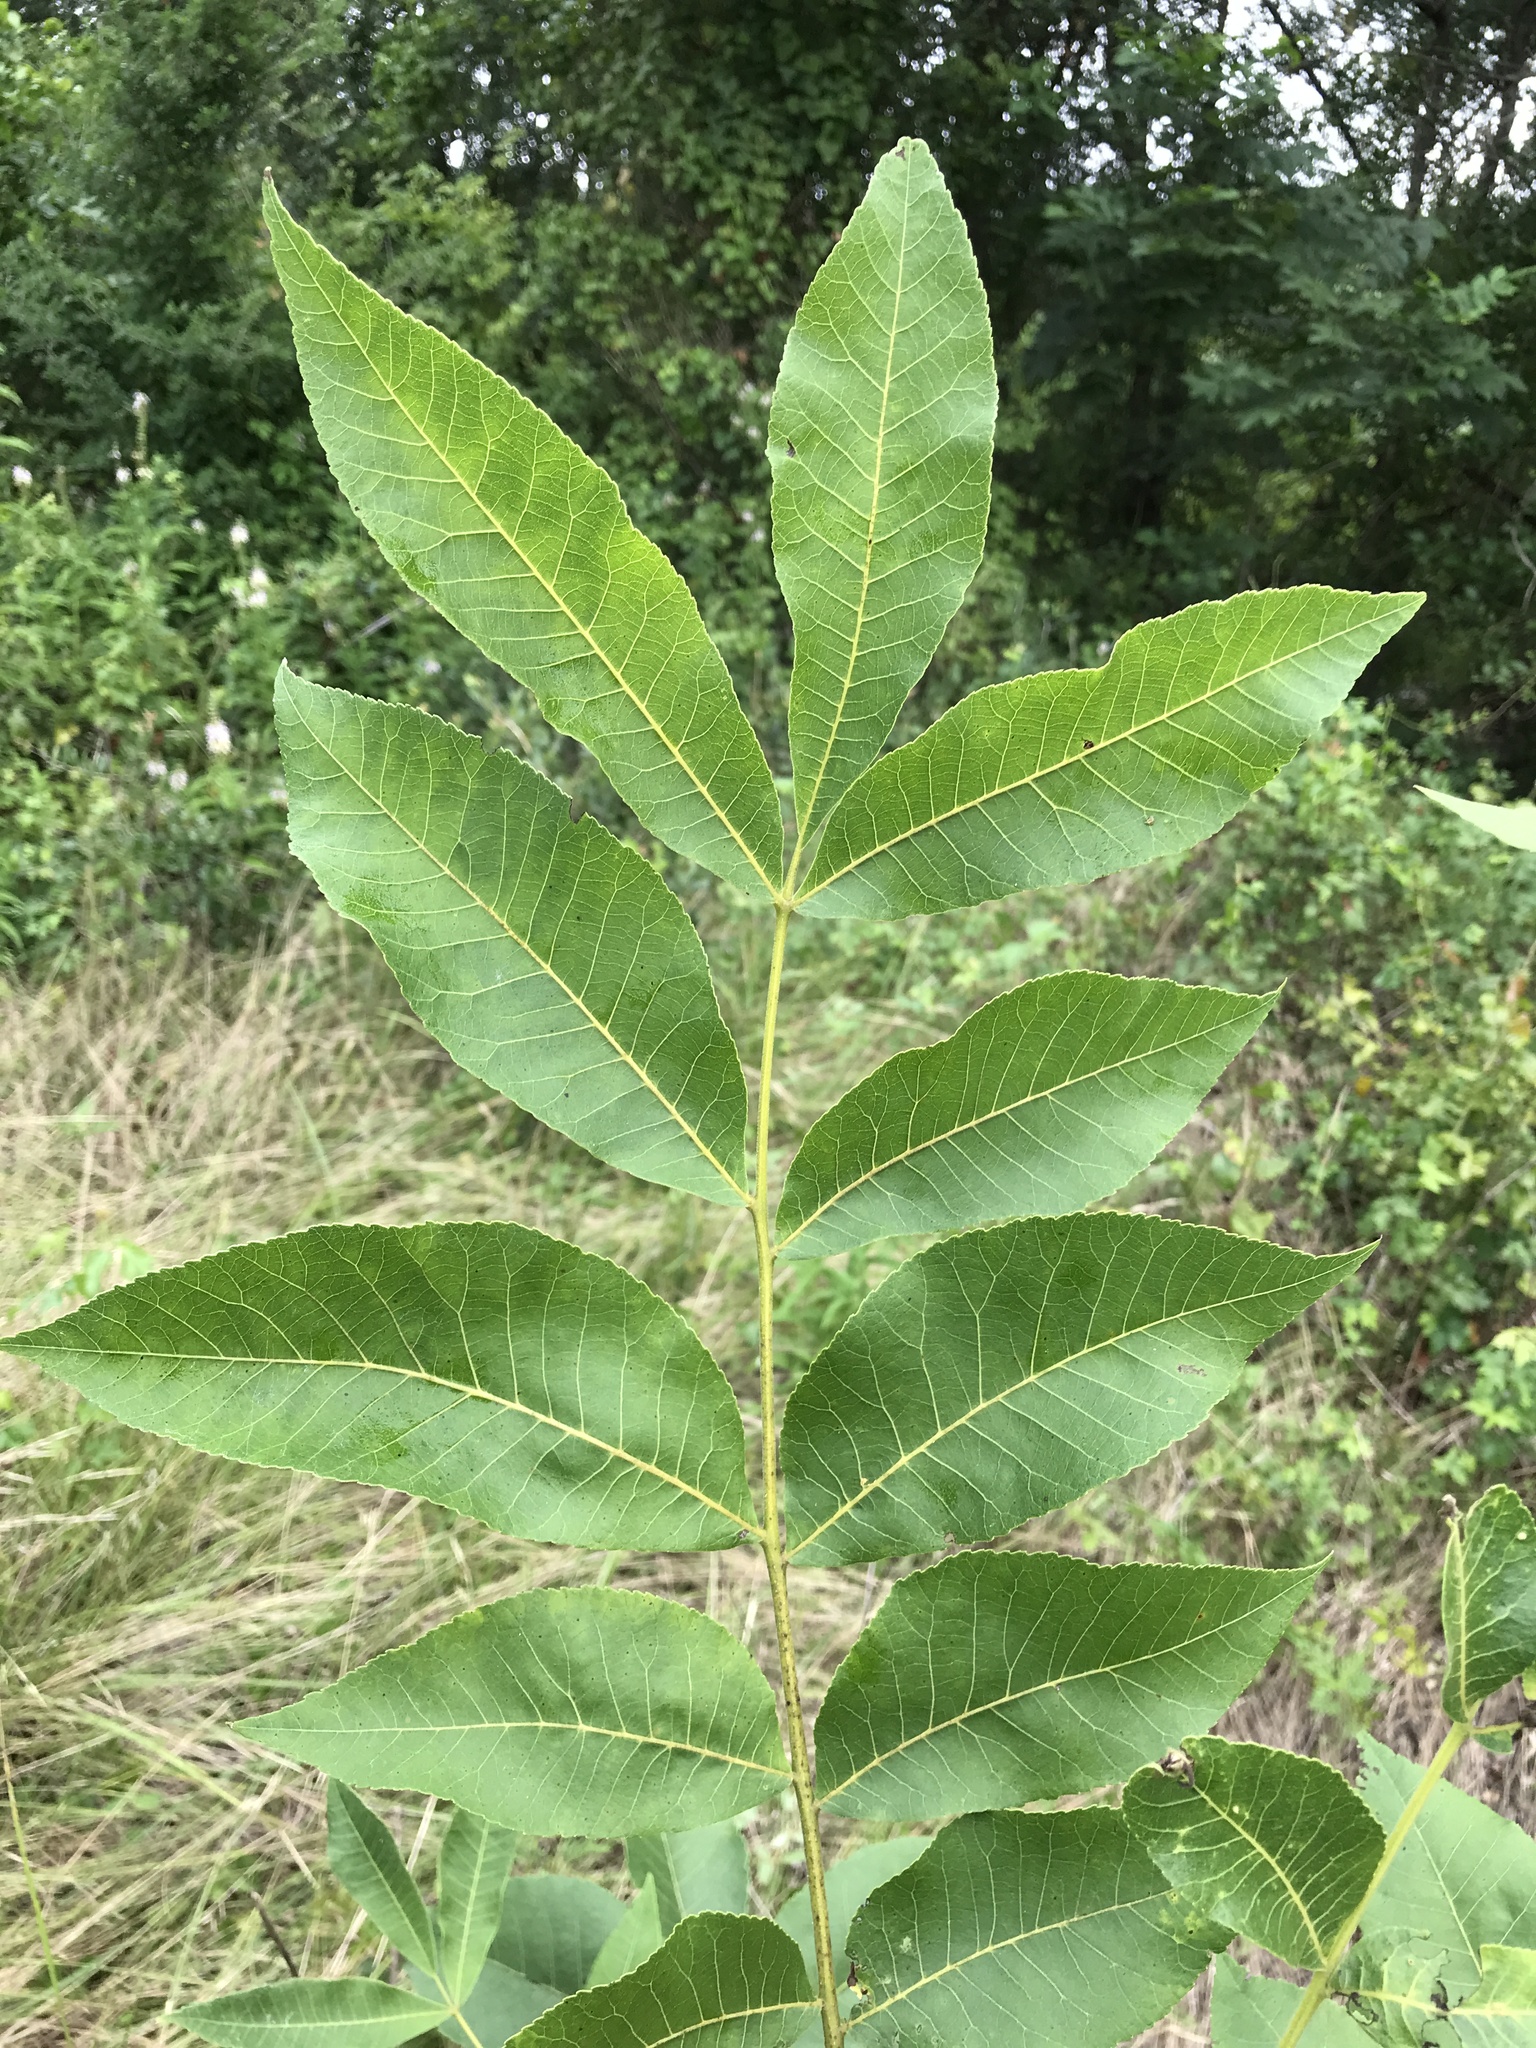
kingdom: Plantae
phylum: Tracheophyta
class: Magnoliopsida
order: Fagales
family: Juglandaceae
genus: Carya
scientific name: Carya illinoinensis
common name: Pecan
